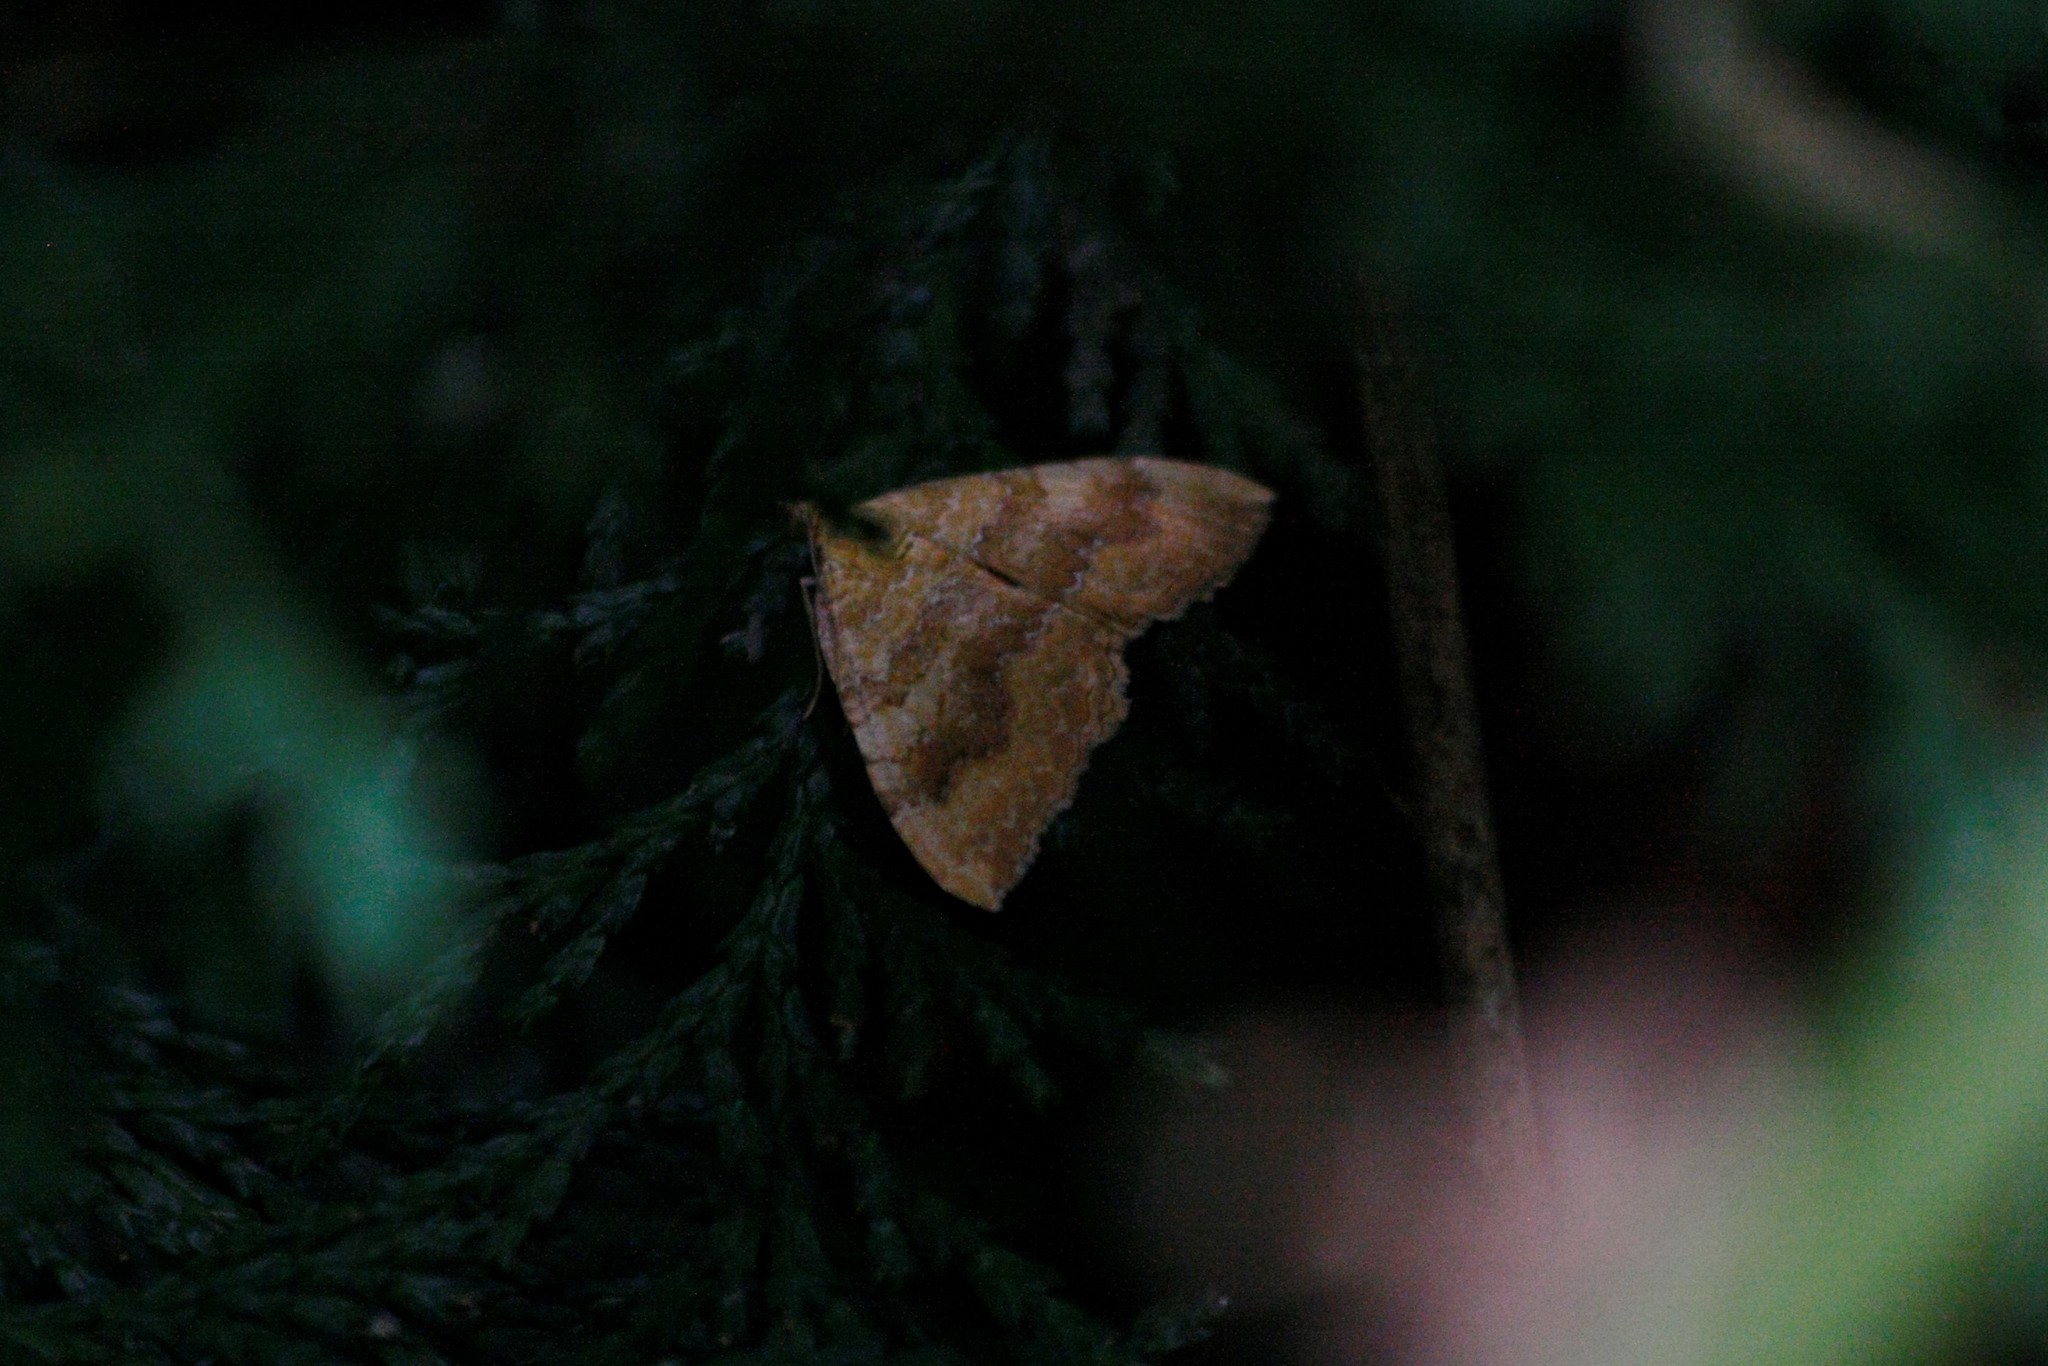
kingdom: Animalia
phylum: Arthropoda
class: Insecta
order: Lepidoptera
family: Geometridae
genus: Camptogramma
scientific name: Camptogramma bilineata
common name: Yellow shell
